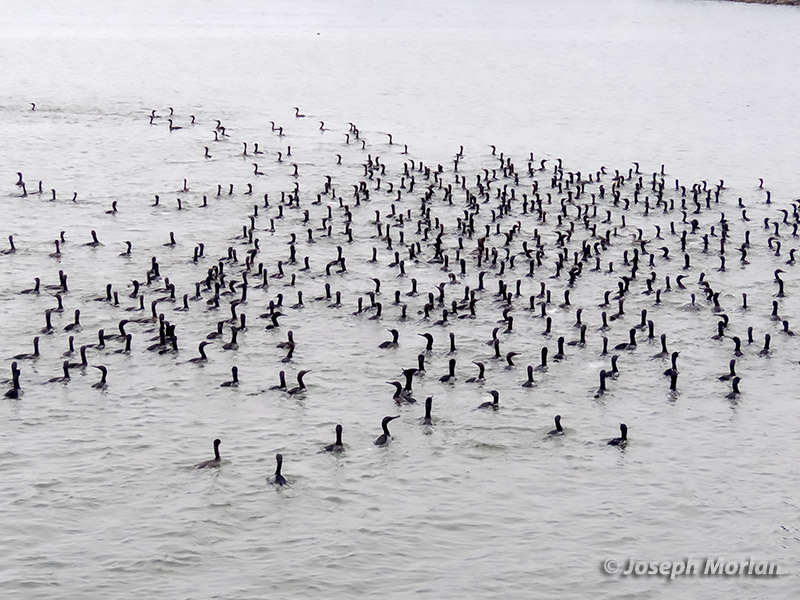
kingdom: Animalia
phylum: Chordata
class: Aves
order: Suliformes
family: Phalacrocoracidae
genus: Urile
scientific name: Urile penicillatus
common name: Brandt's cormorant
